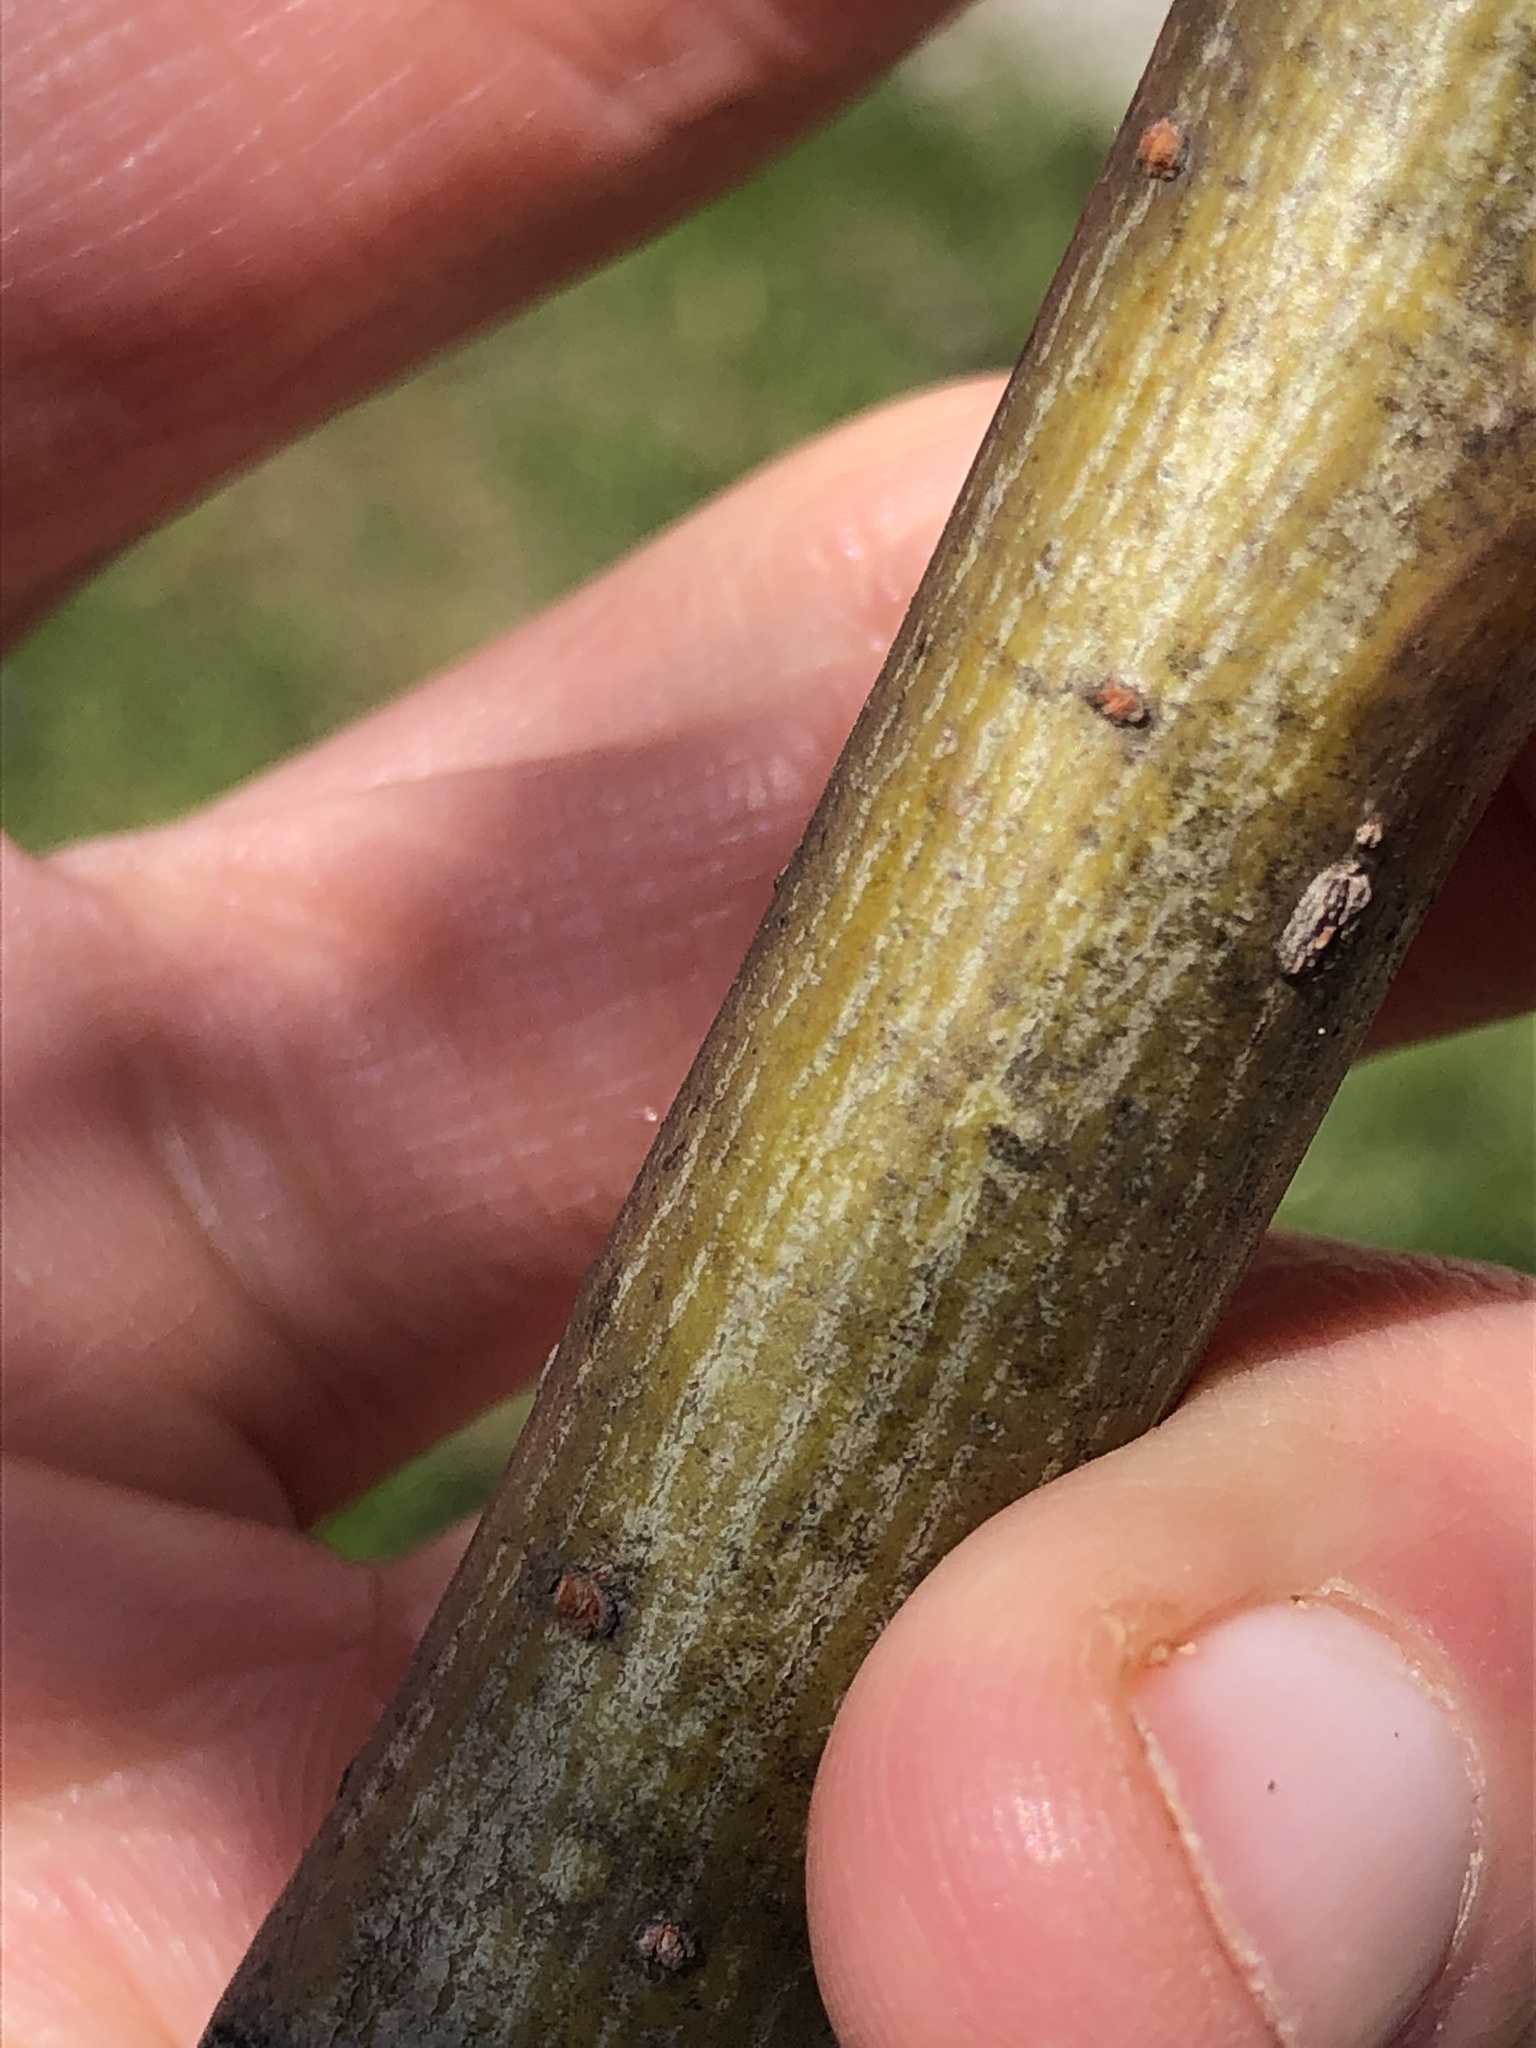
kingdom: Plantae
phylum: Tracheophyta
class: Magnoliopsida
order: Malpighiales
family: Salicaceae
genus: Salix
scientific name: Salix interior
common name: Sandbar willow
